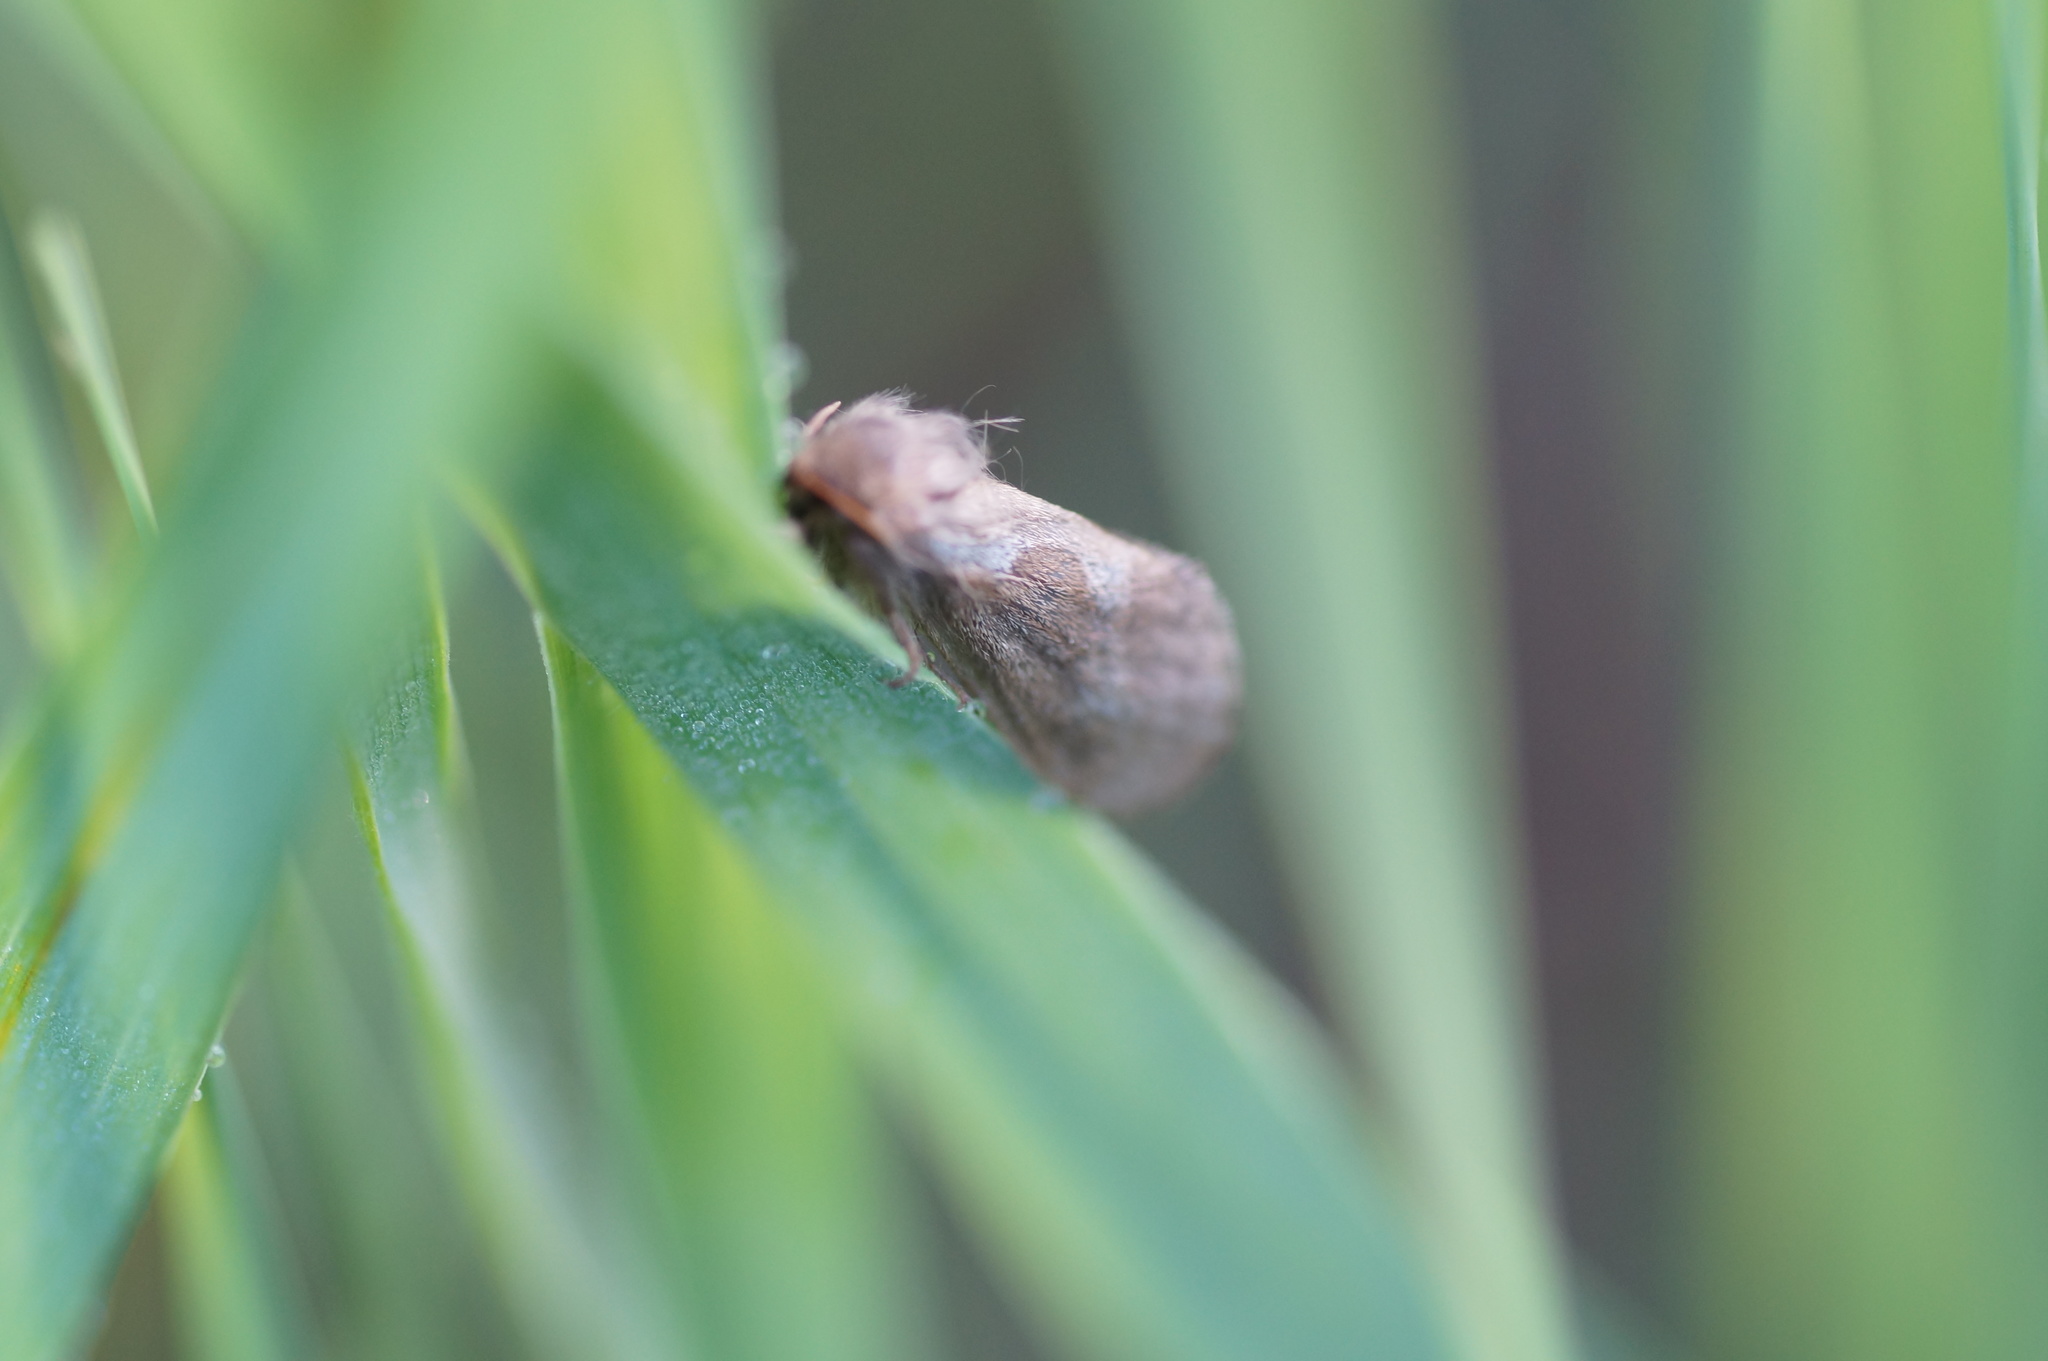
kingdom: Animalia
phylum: Arthropoda
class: Insecta
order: Lepidoptera
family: Hepialidae
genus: Korscheltellus
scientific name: Korscheltellus lupulina
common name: Common swift
